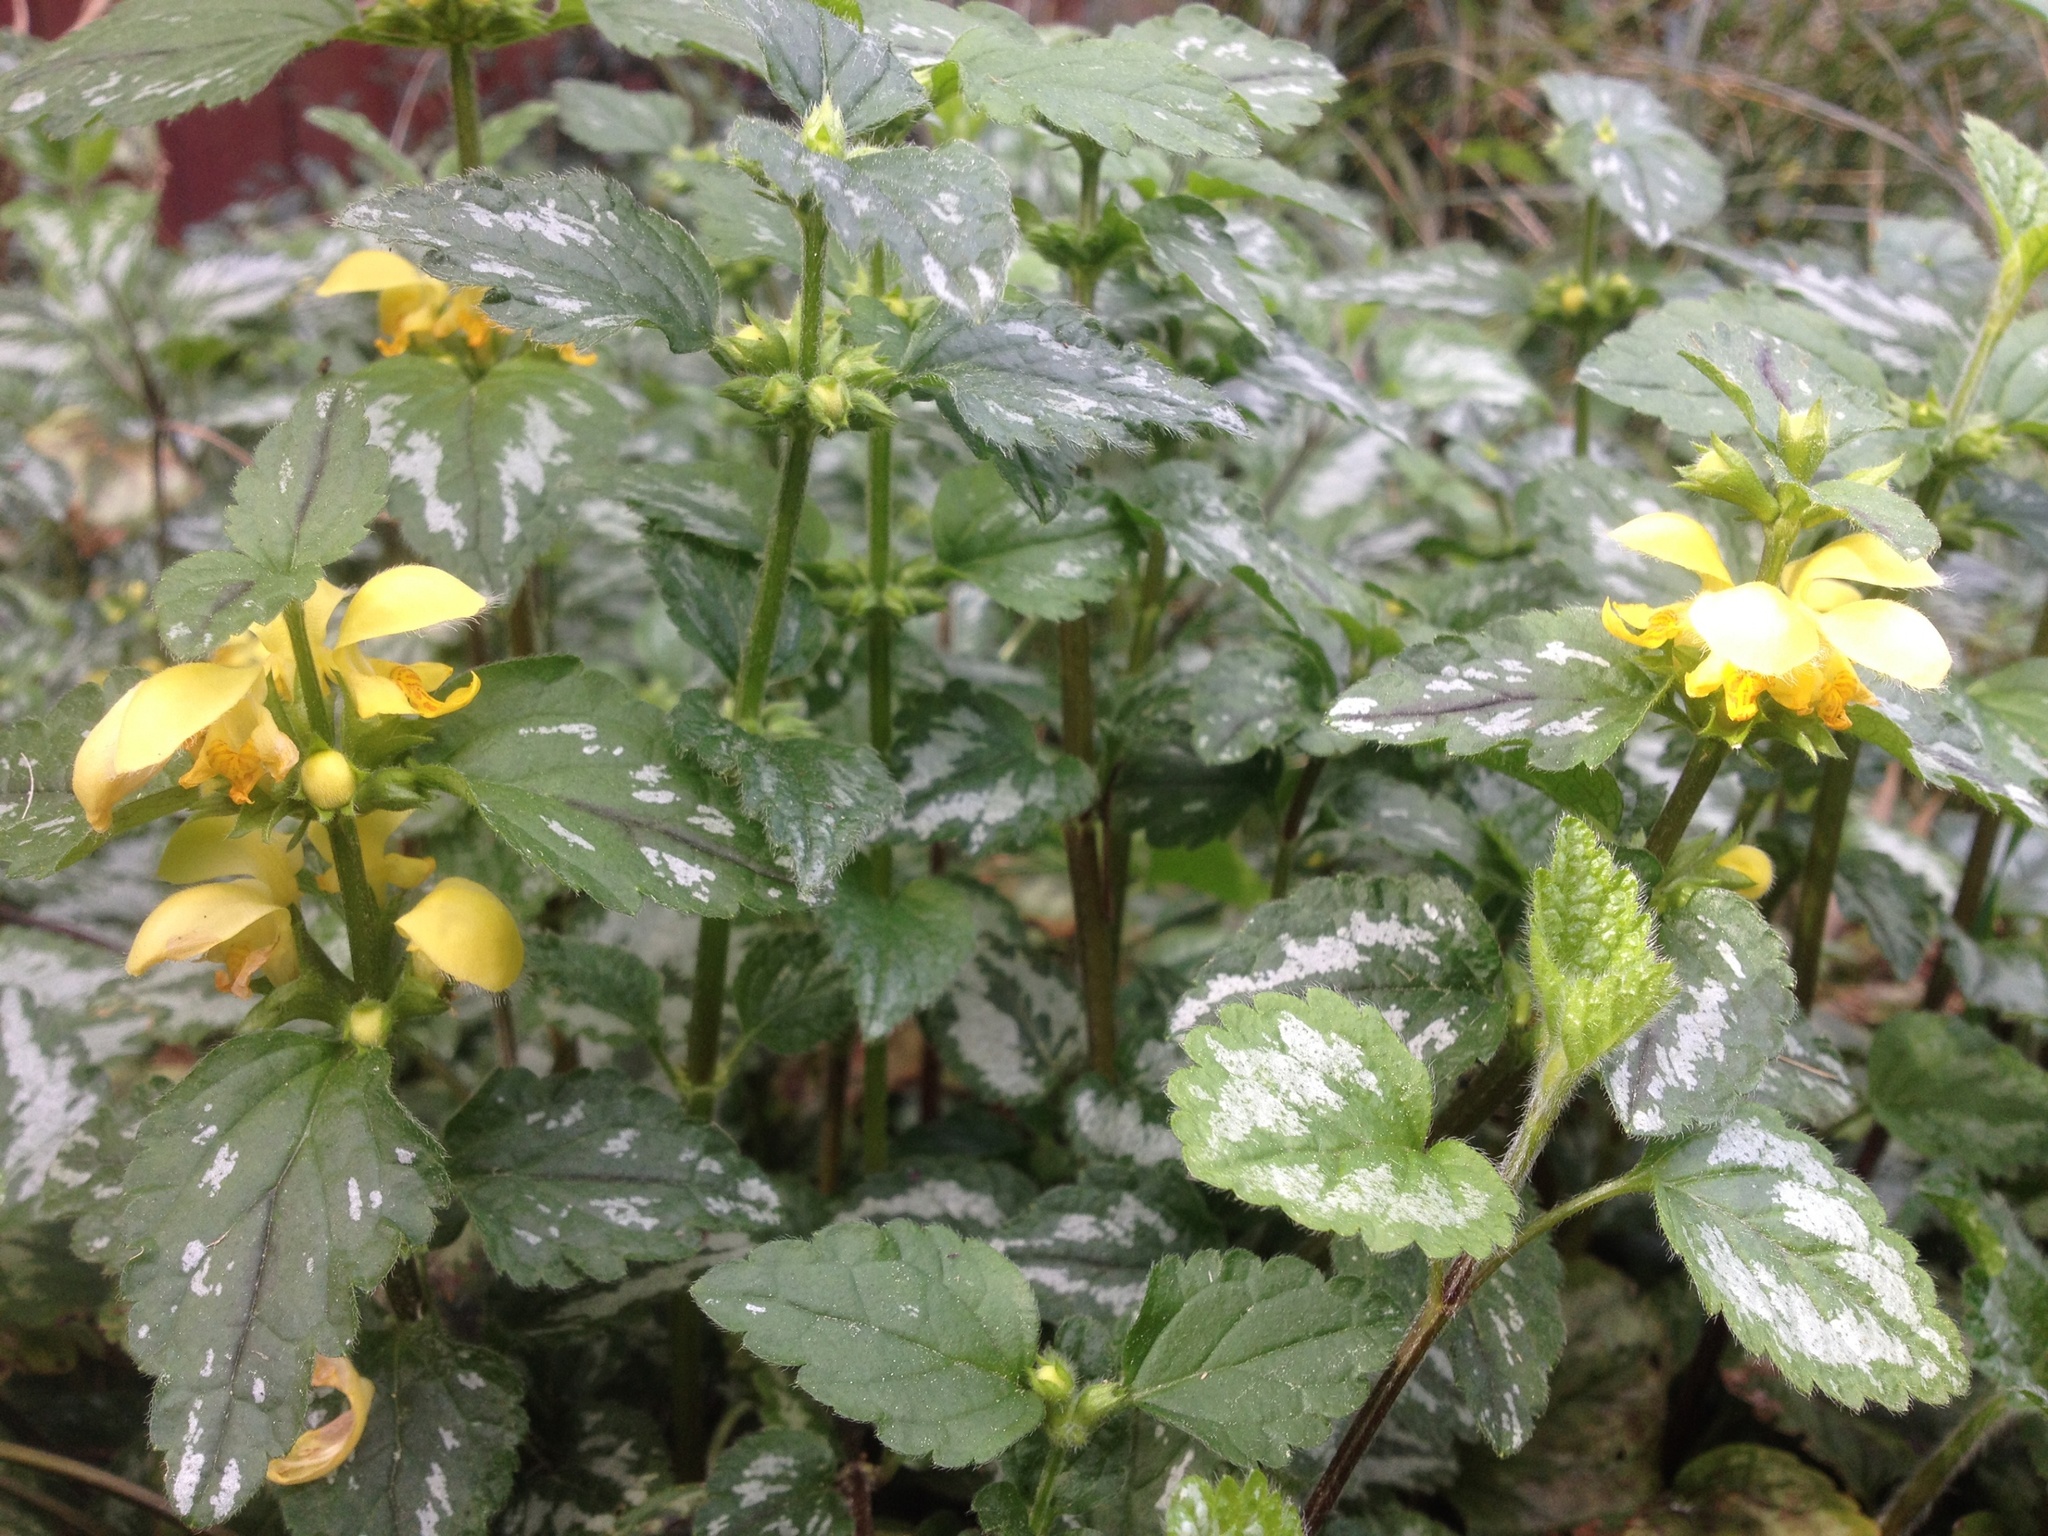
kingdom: Plantae
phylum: Tracheophyta
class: Magnoliopsida
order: Lamiales
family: Lamiaceae
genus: Lamium
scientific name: Lamium galeobdolon
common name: Yellow archangel
